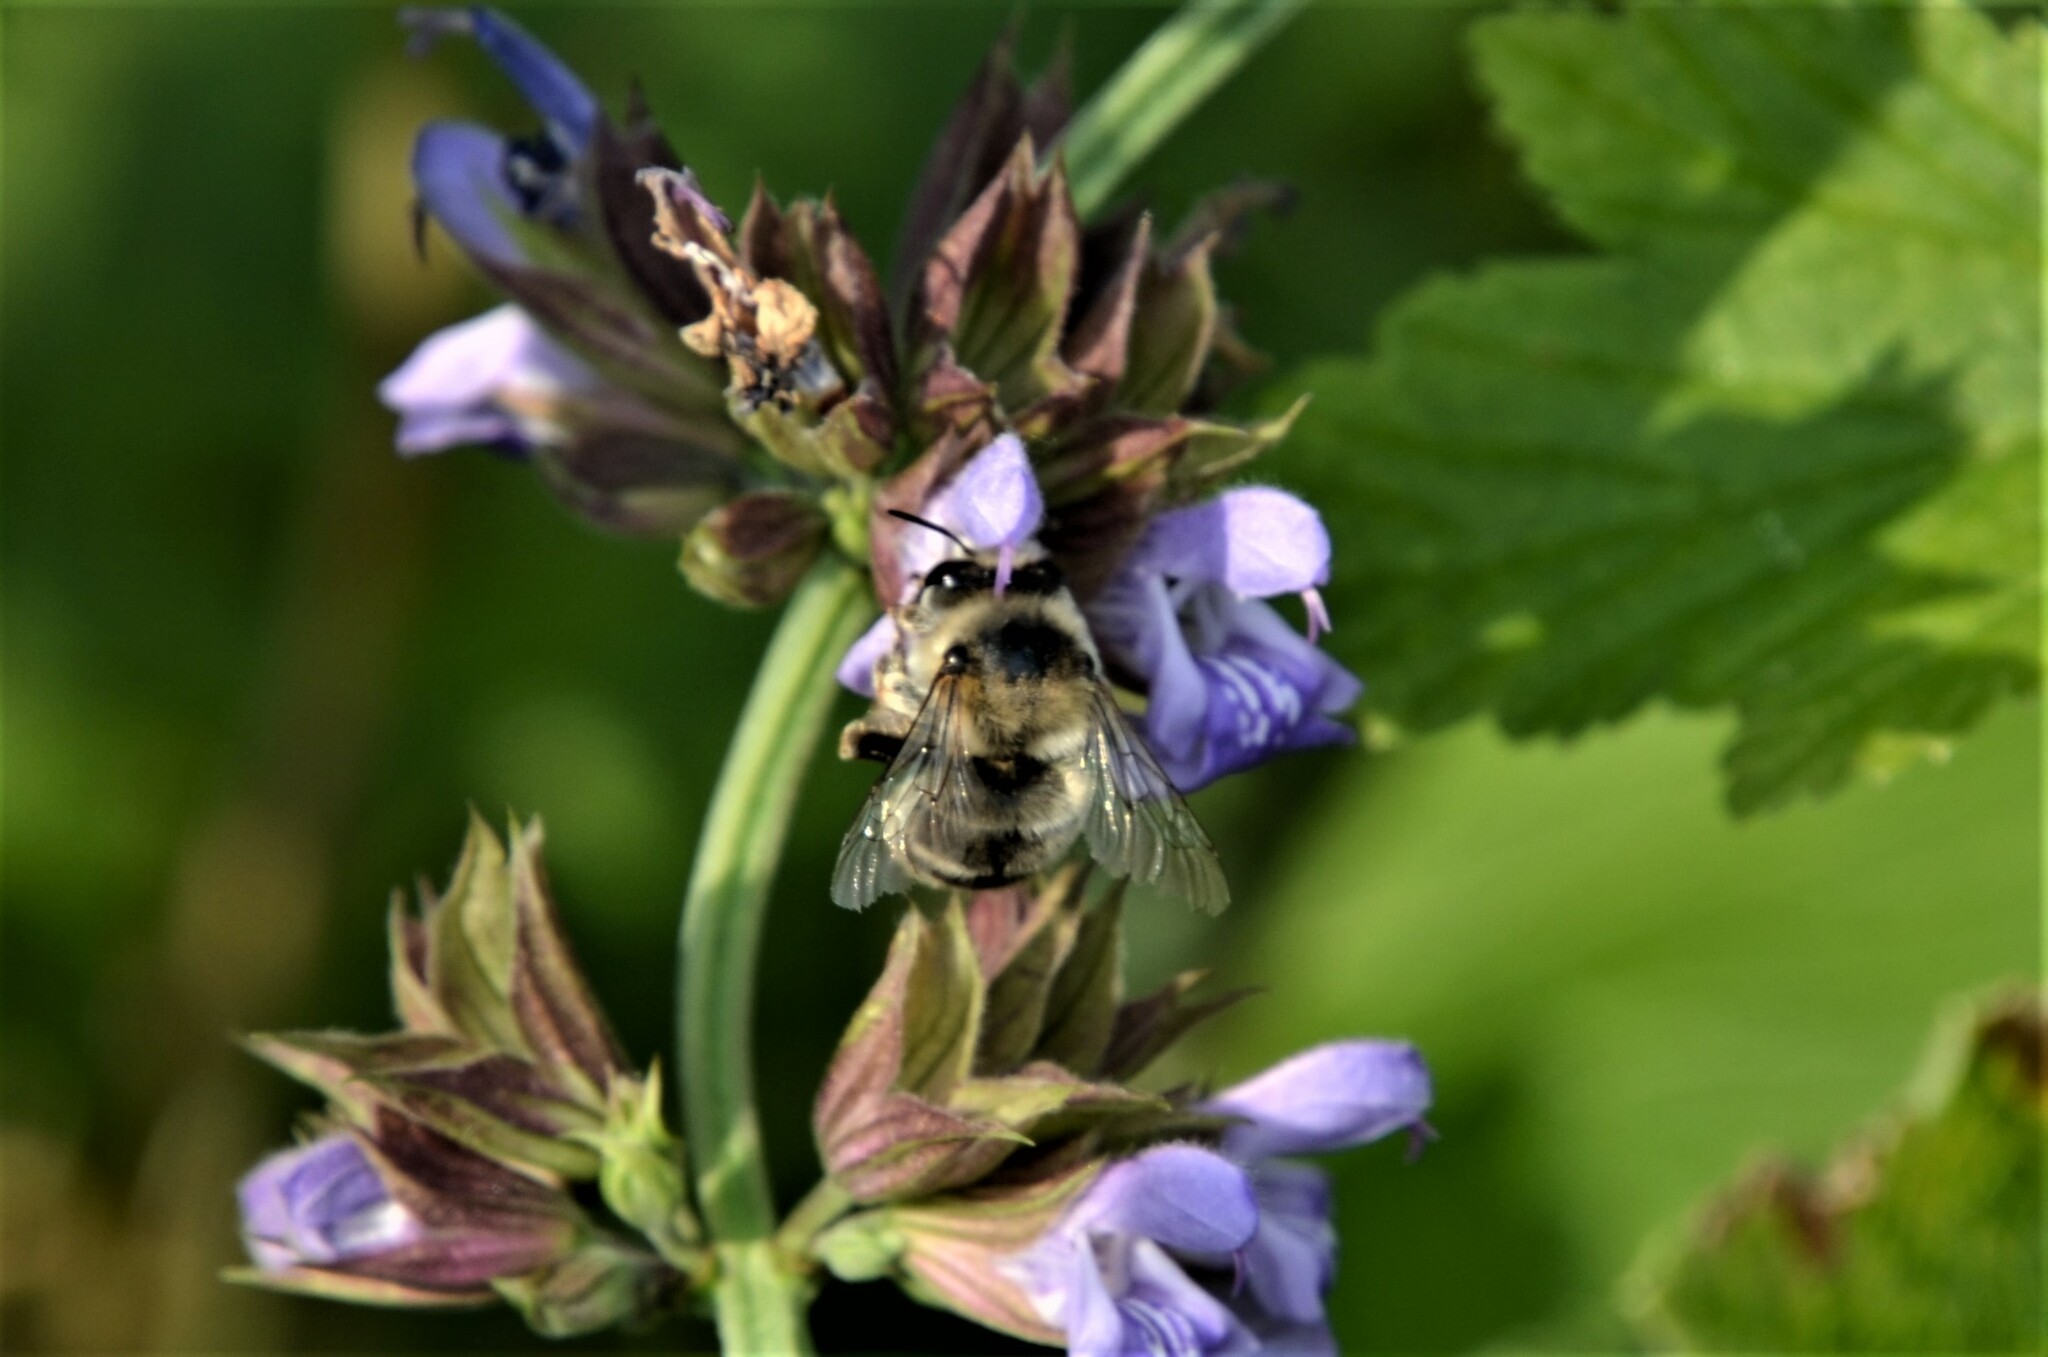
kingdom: Animalia
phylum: Arthropoda
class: Insecta
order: Hymenoptera
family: Apidae
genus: Anthophora
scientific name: Anthophora aestivalis
